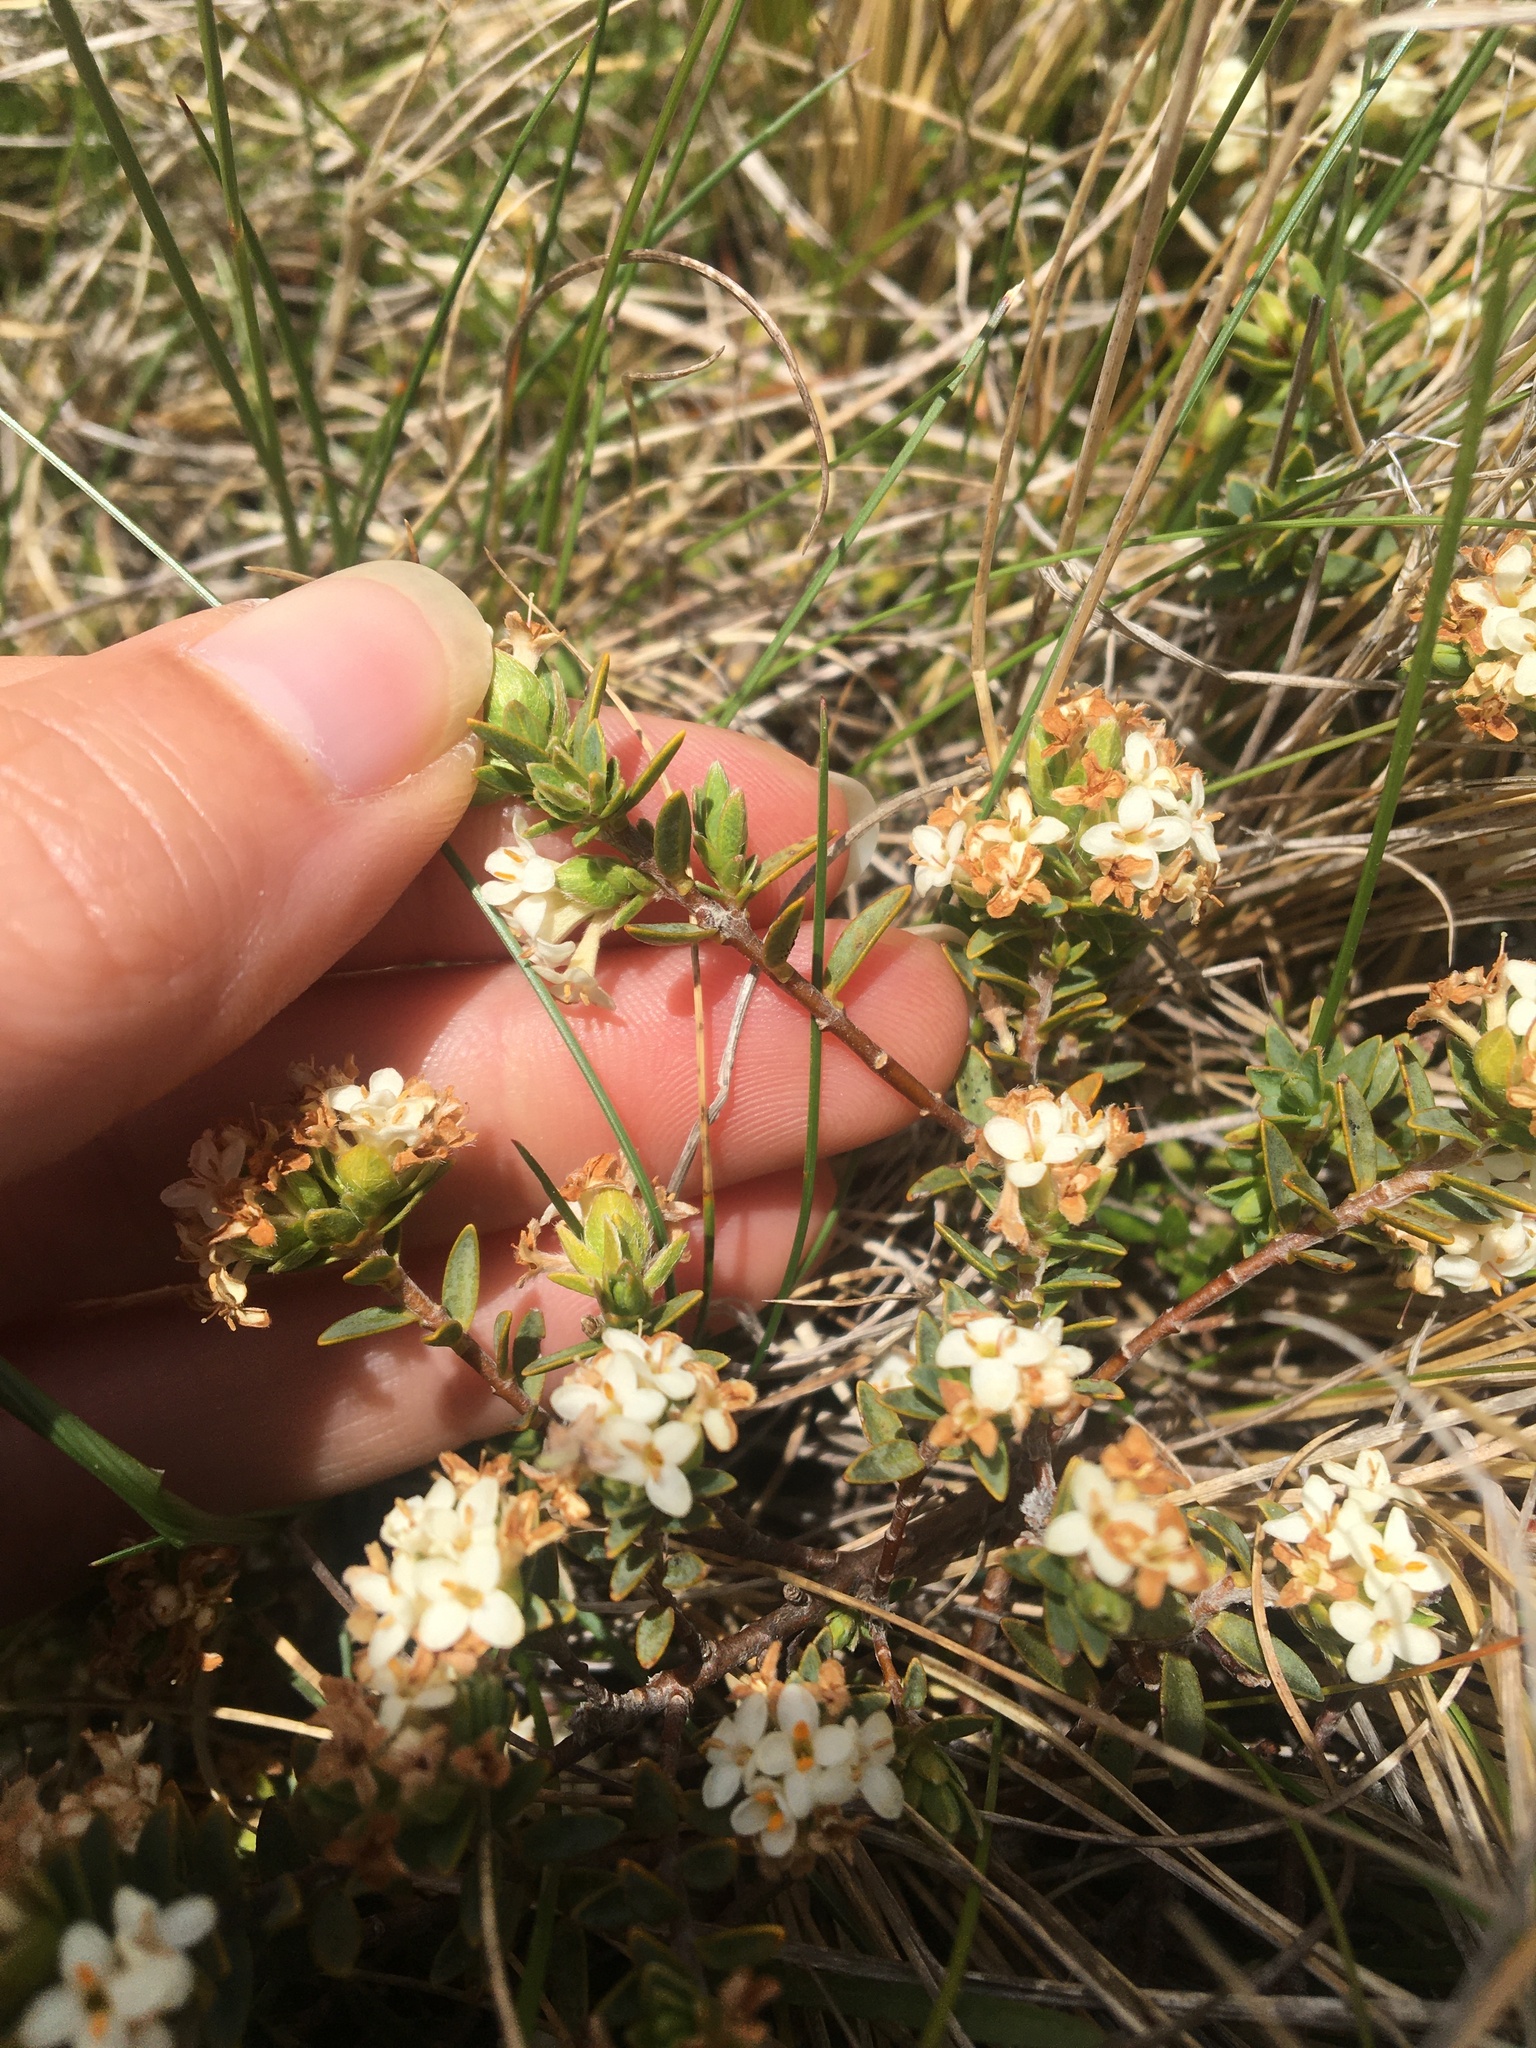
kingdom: Plantae
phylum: Tracheophyta
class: Magnoliopsida
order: Malvales
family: Thymelaeaceae
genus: Pimelea
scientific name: Pimelea oreophila
